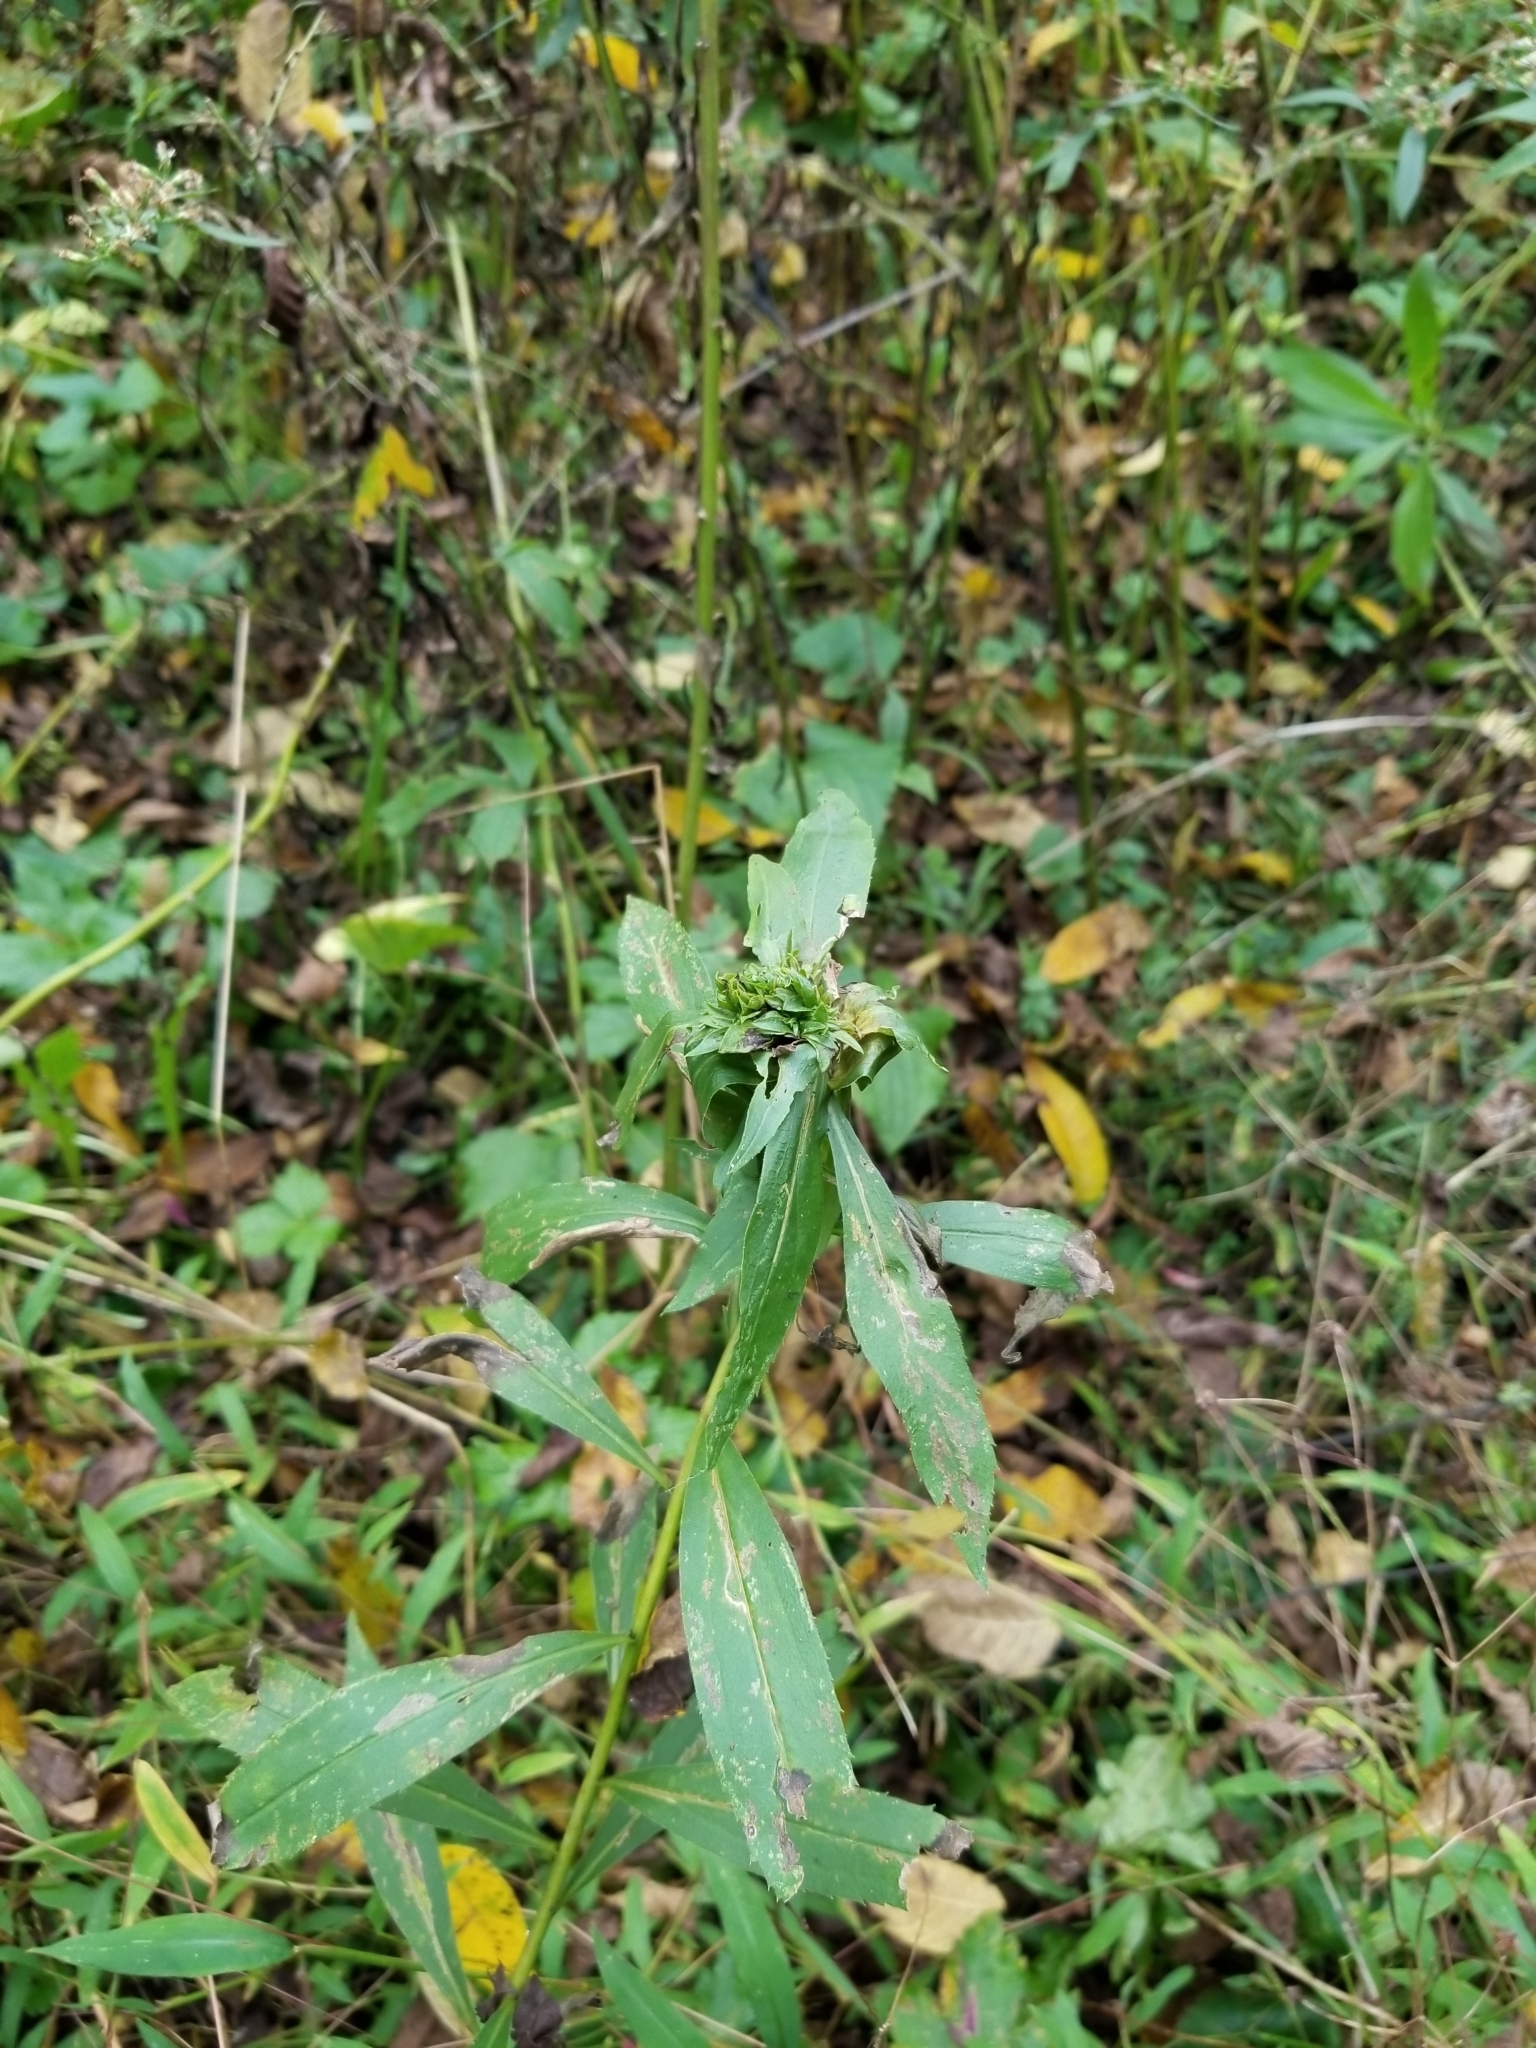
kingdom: Animalia
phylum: Arthropoda
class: Insecta
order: Diptera
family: Cecidomyiidae
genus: Rhopalomyia
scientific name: Rhopalomyia capitata
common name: Giant goldenrod bunch gall midge
